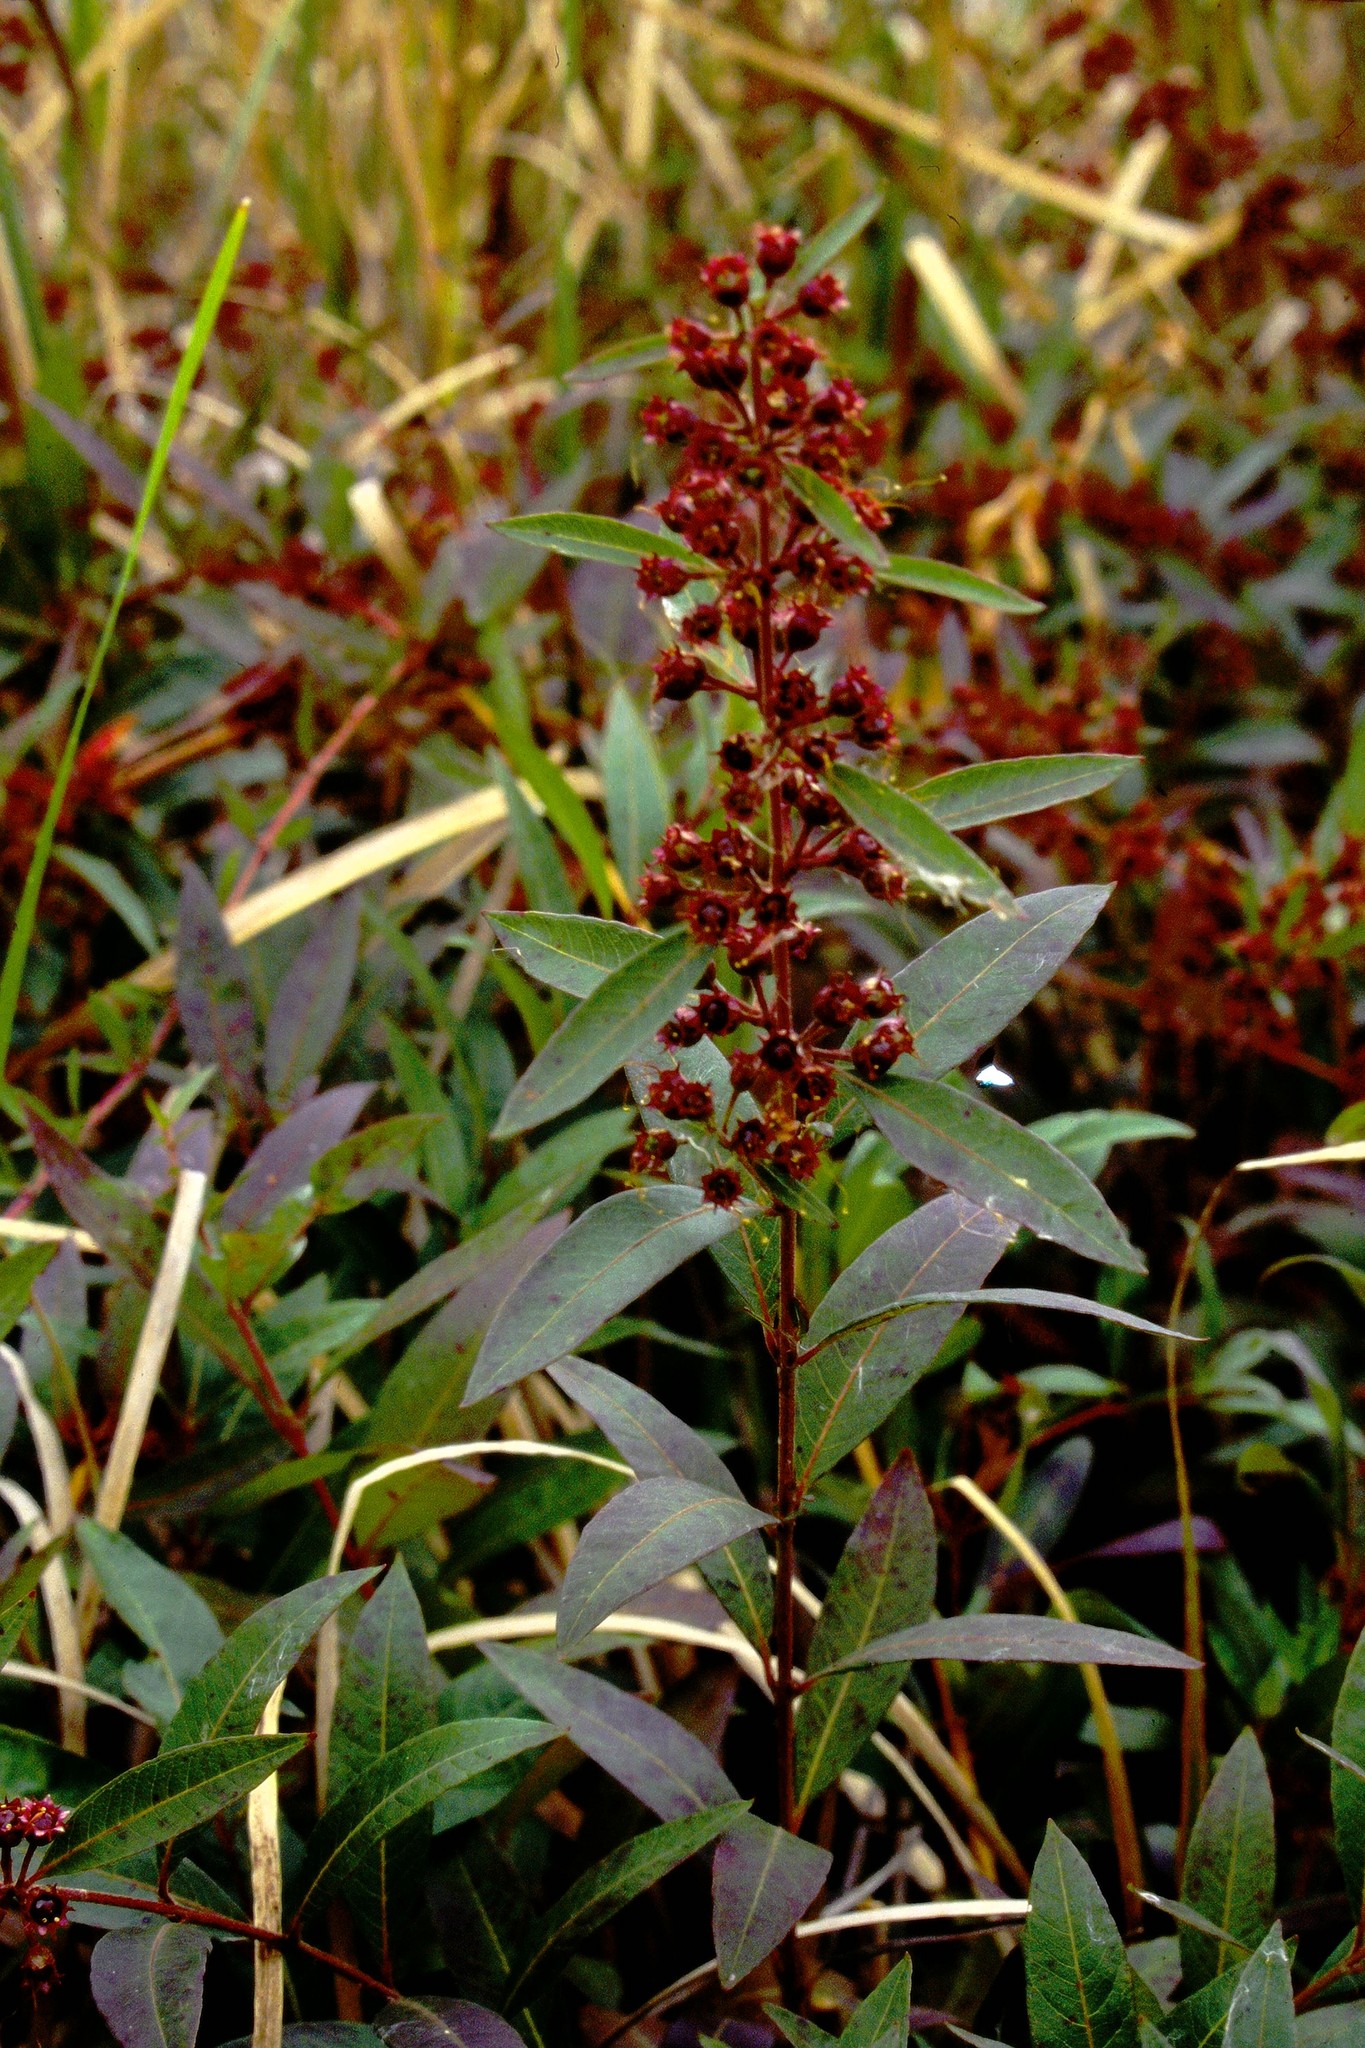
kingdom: Plantae
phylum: Tracheophyta
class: Magnoliopsida
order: Myrtales
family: Lythraceae
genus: Decodon
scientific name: Decodon verticillatus
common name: Hairy swamp loosestrife
